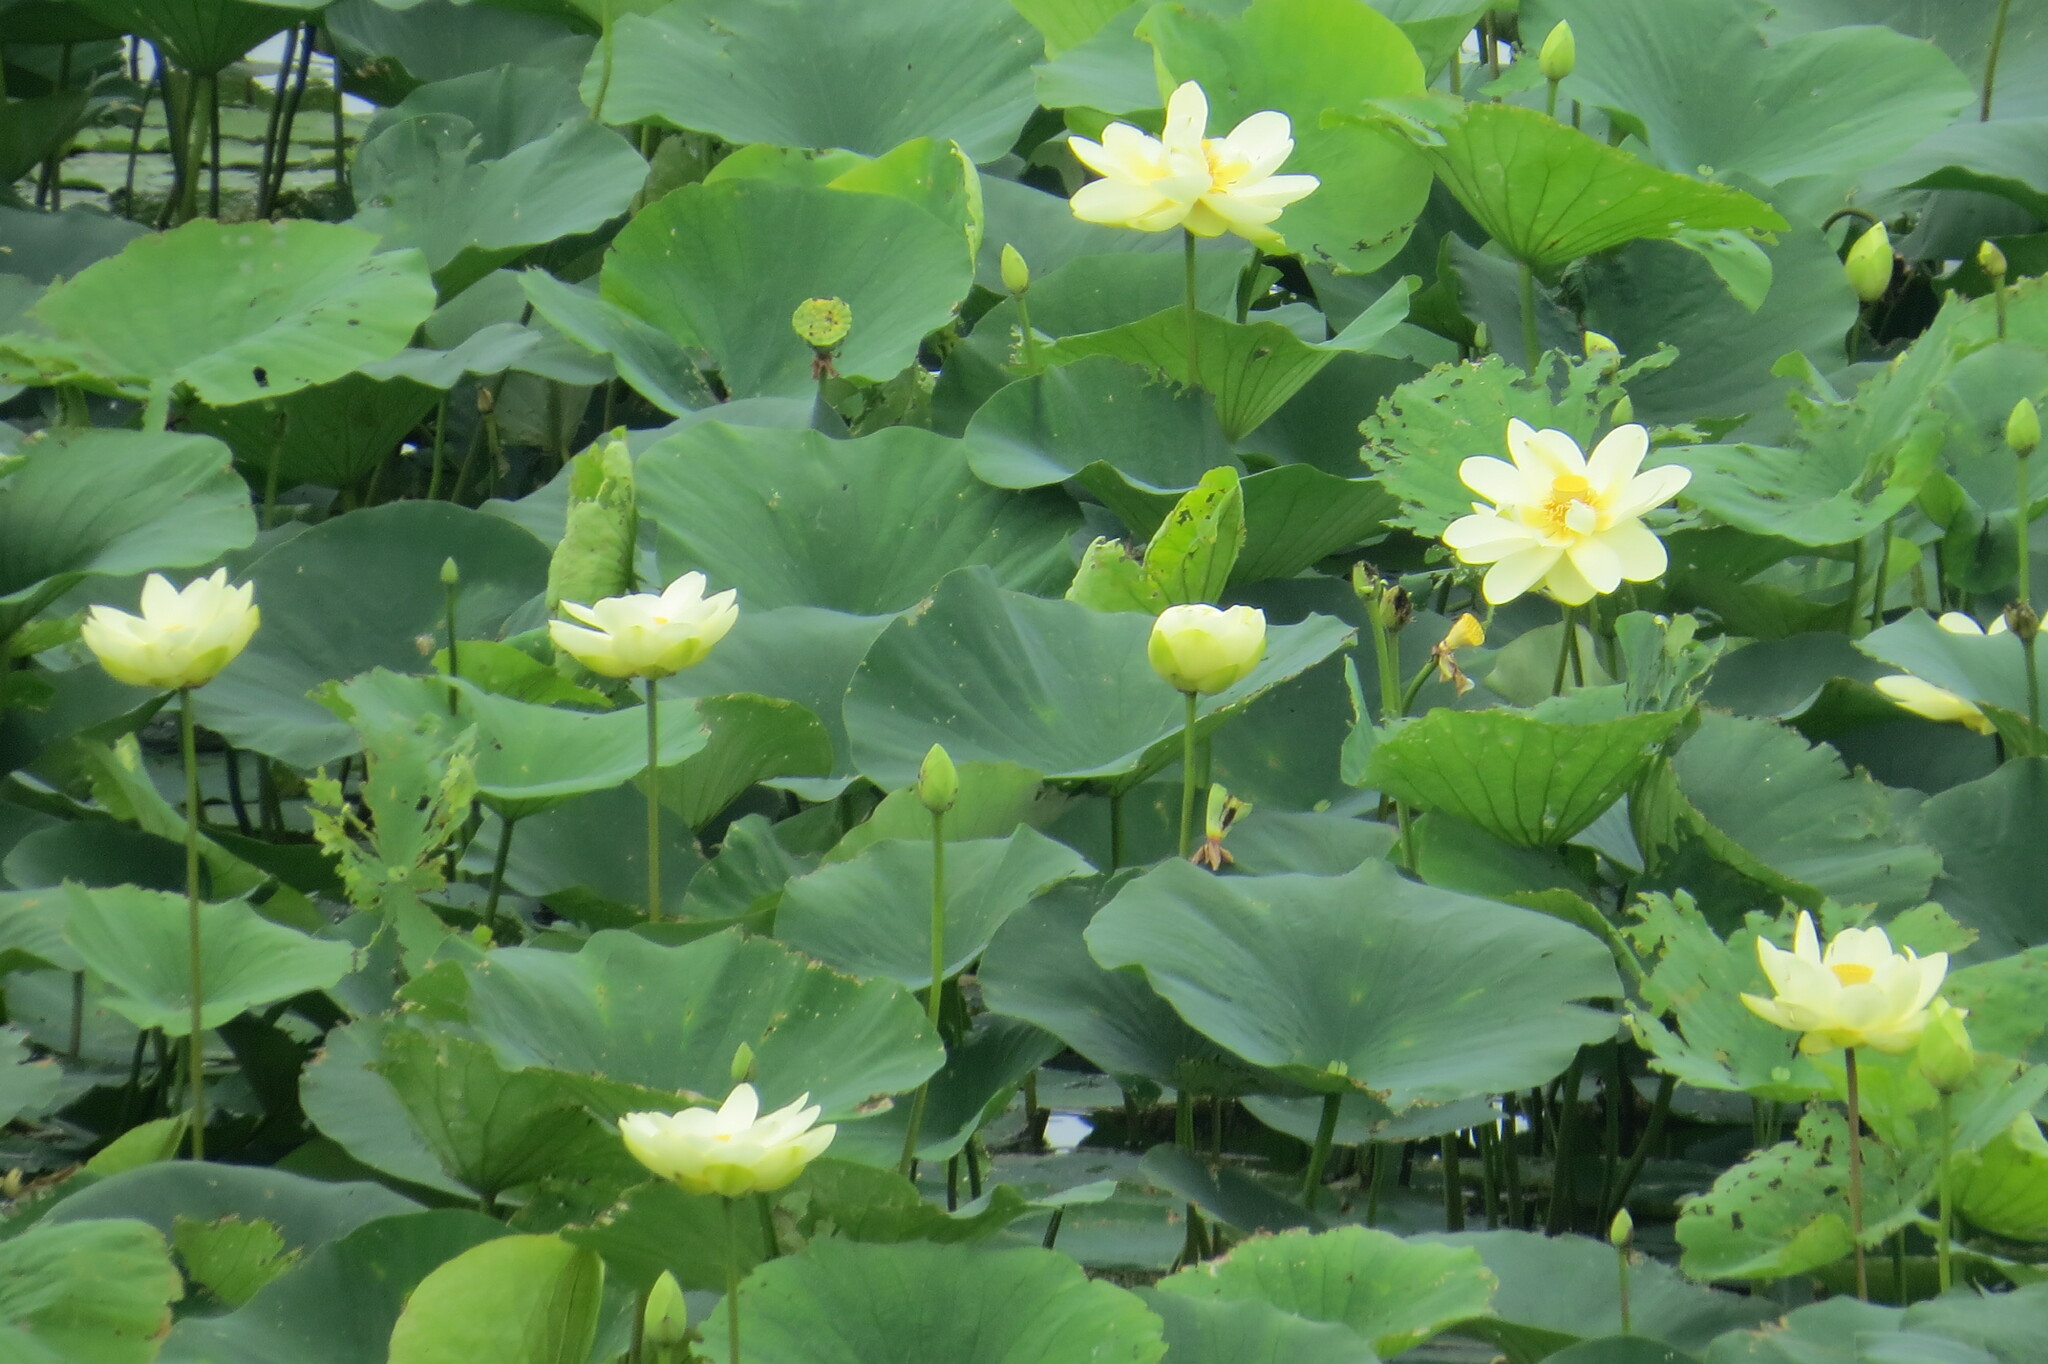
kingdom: Plantae
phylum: Tracheophyta
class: Magnoliopsida
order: Proteales
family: Nelumbonaceae
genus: Nelumbo
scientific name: Nelumbo lutea
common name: American lotus
